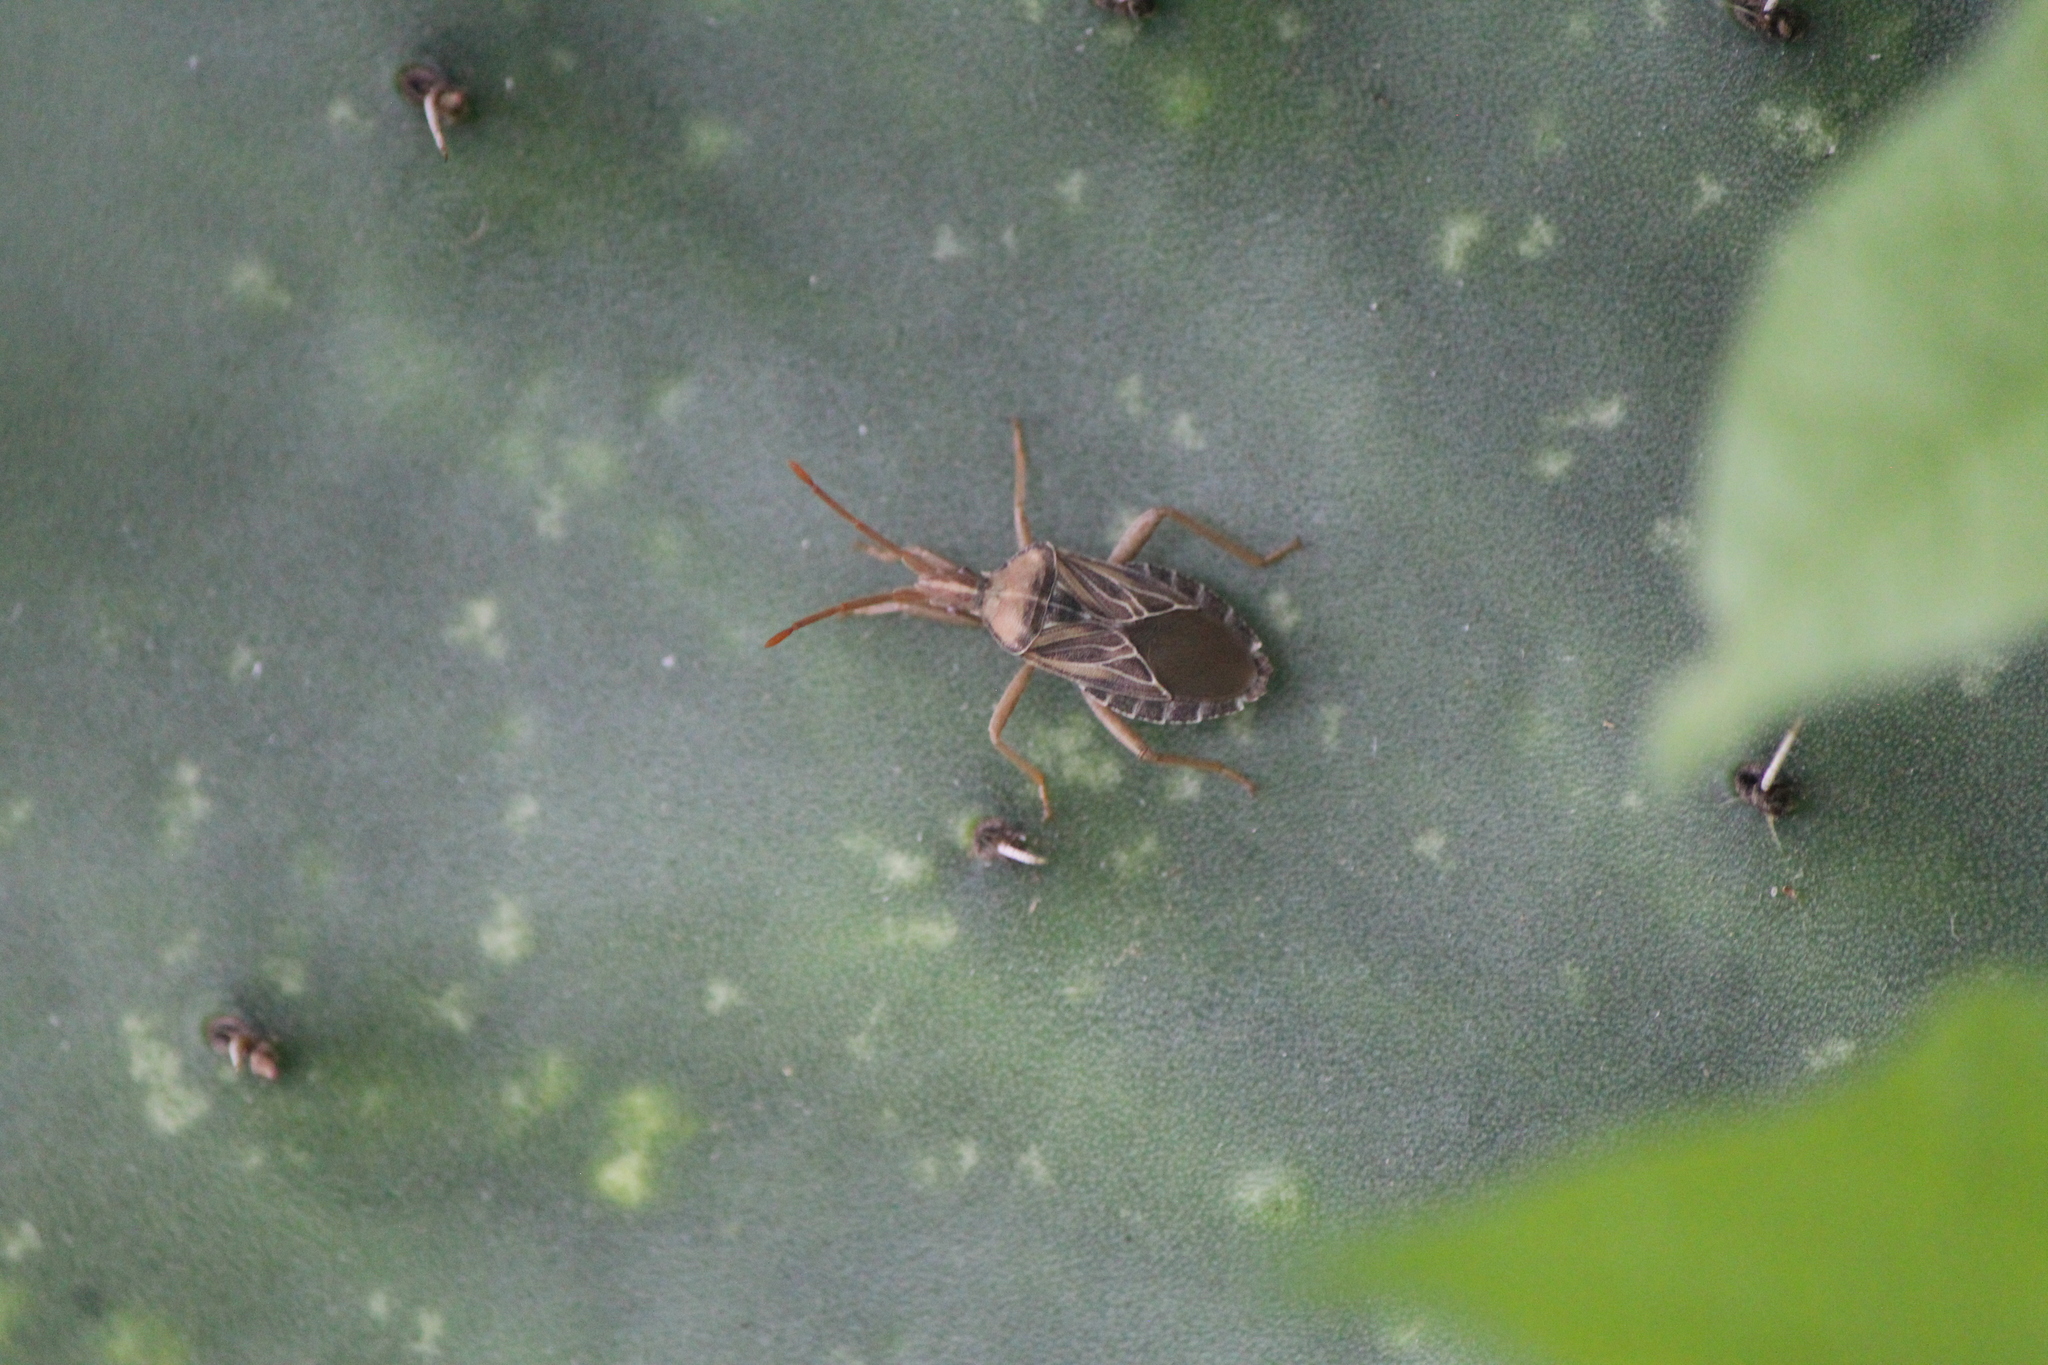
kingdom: Animalia
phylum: Arthropoda
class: Insecta
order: Hemiptera
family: Coreidae
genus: Chelinidea
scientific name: Chelinidea tabulata
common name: Prickly pear bug
